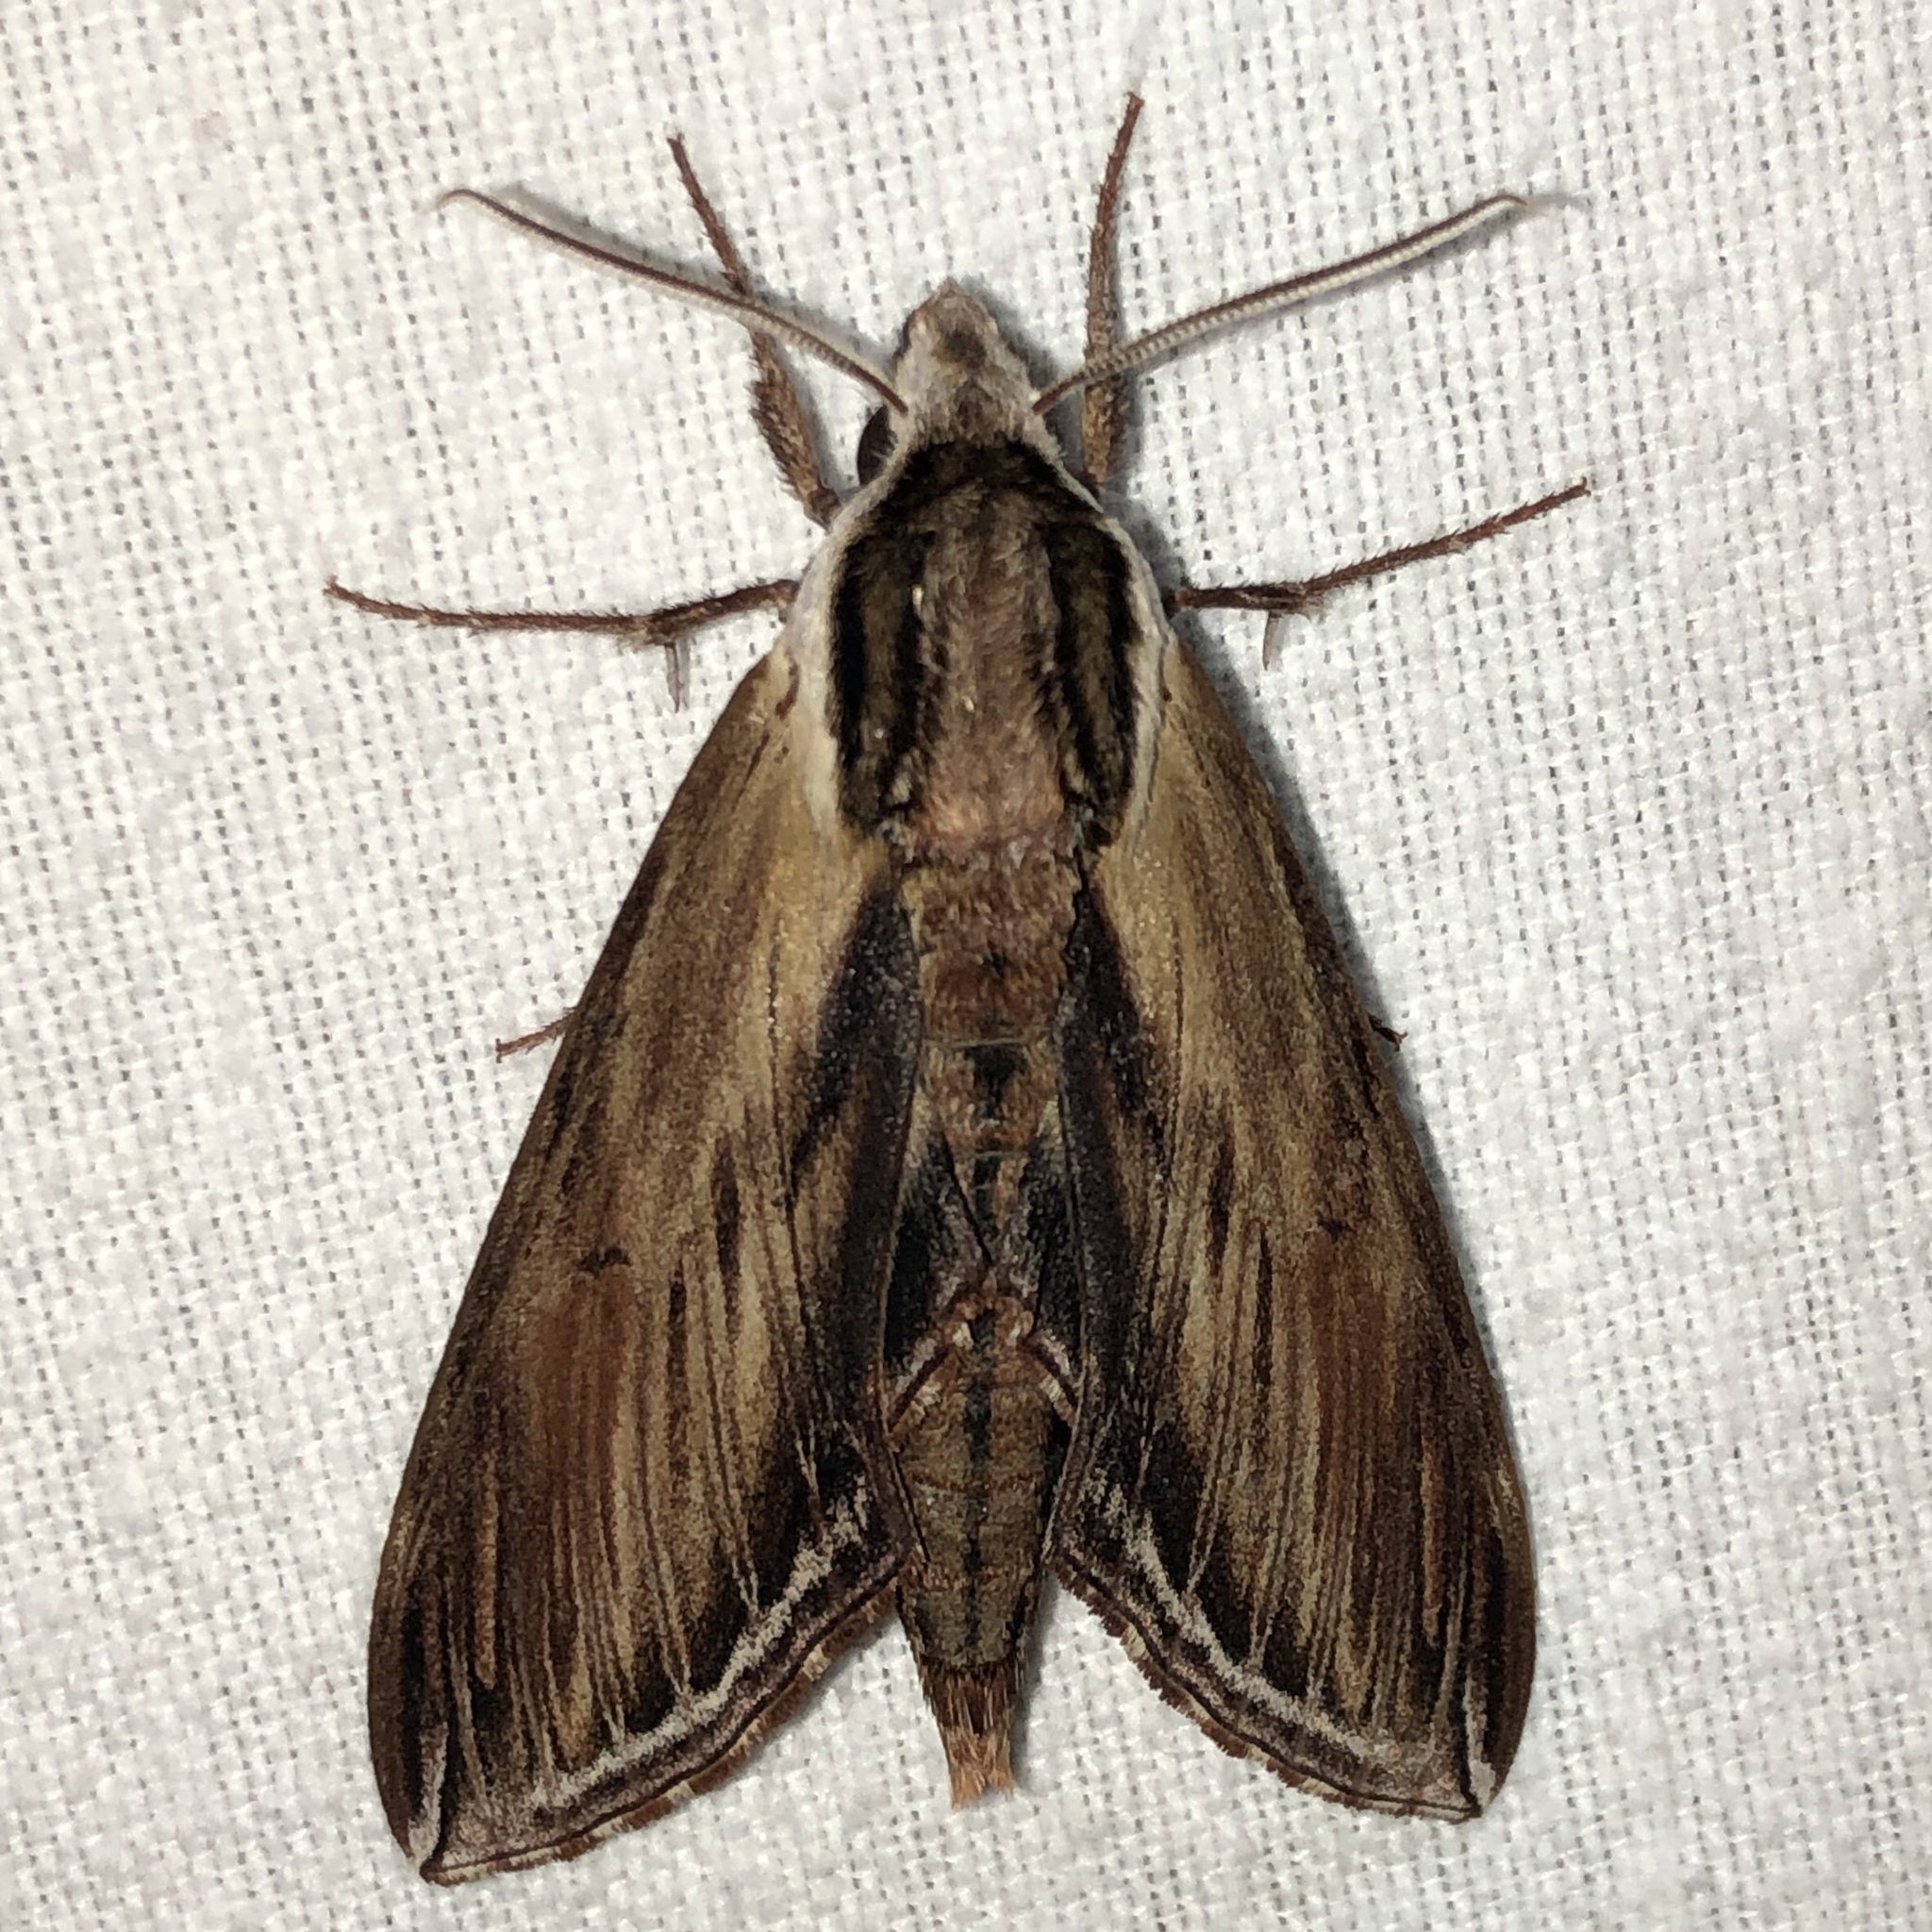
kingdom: Animalia
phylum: Arthropoda
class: Insecta
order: Lepidoptera
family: Sphingidae
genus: Sphinx
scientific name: Sphinx kalmiae
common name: Laurel sphinx
